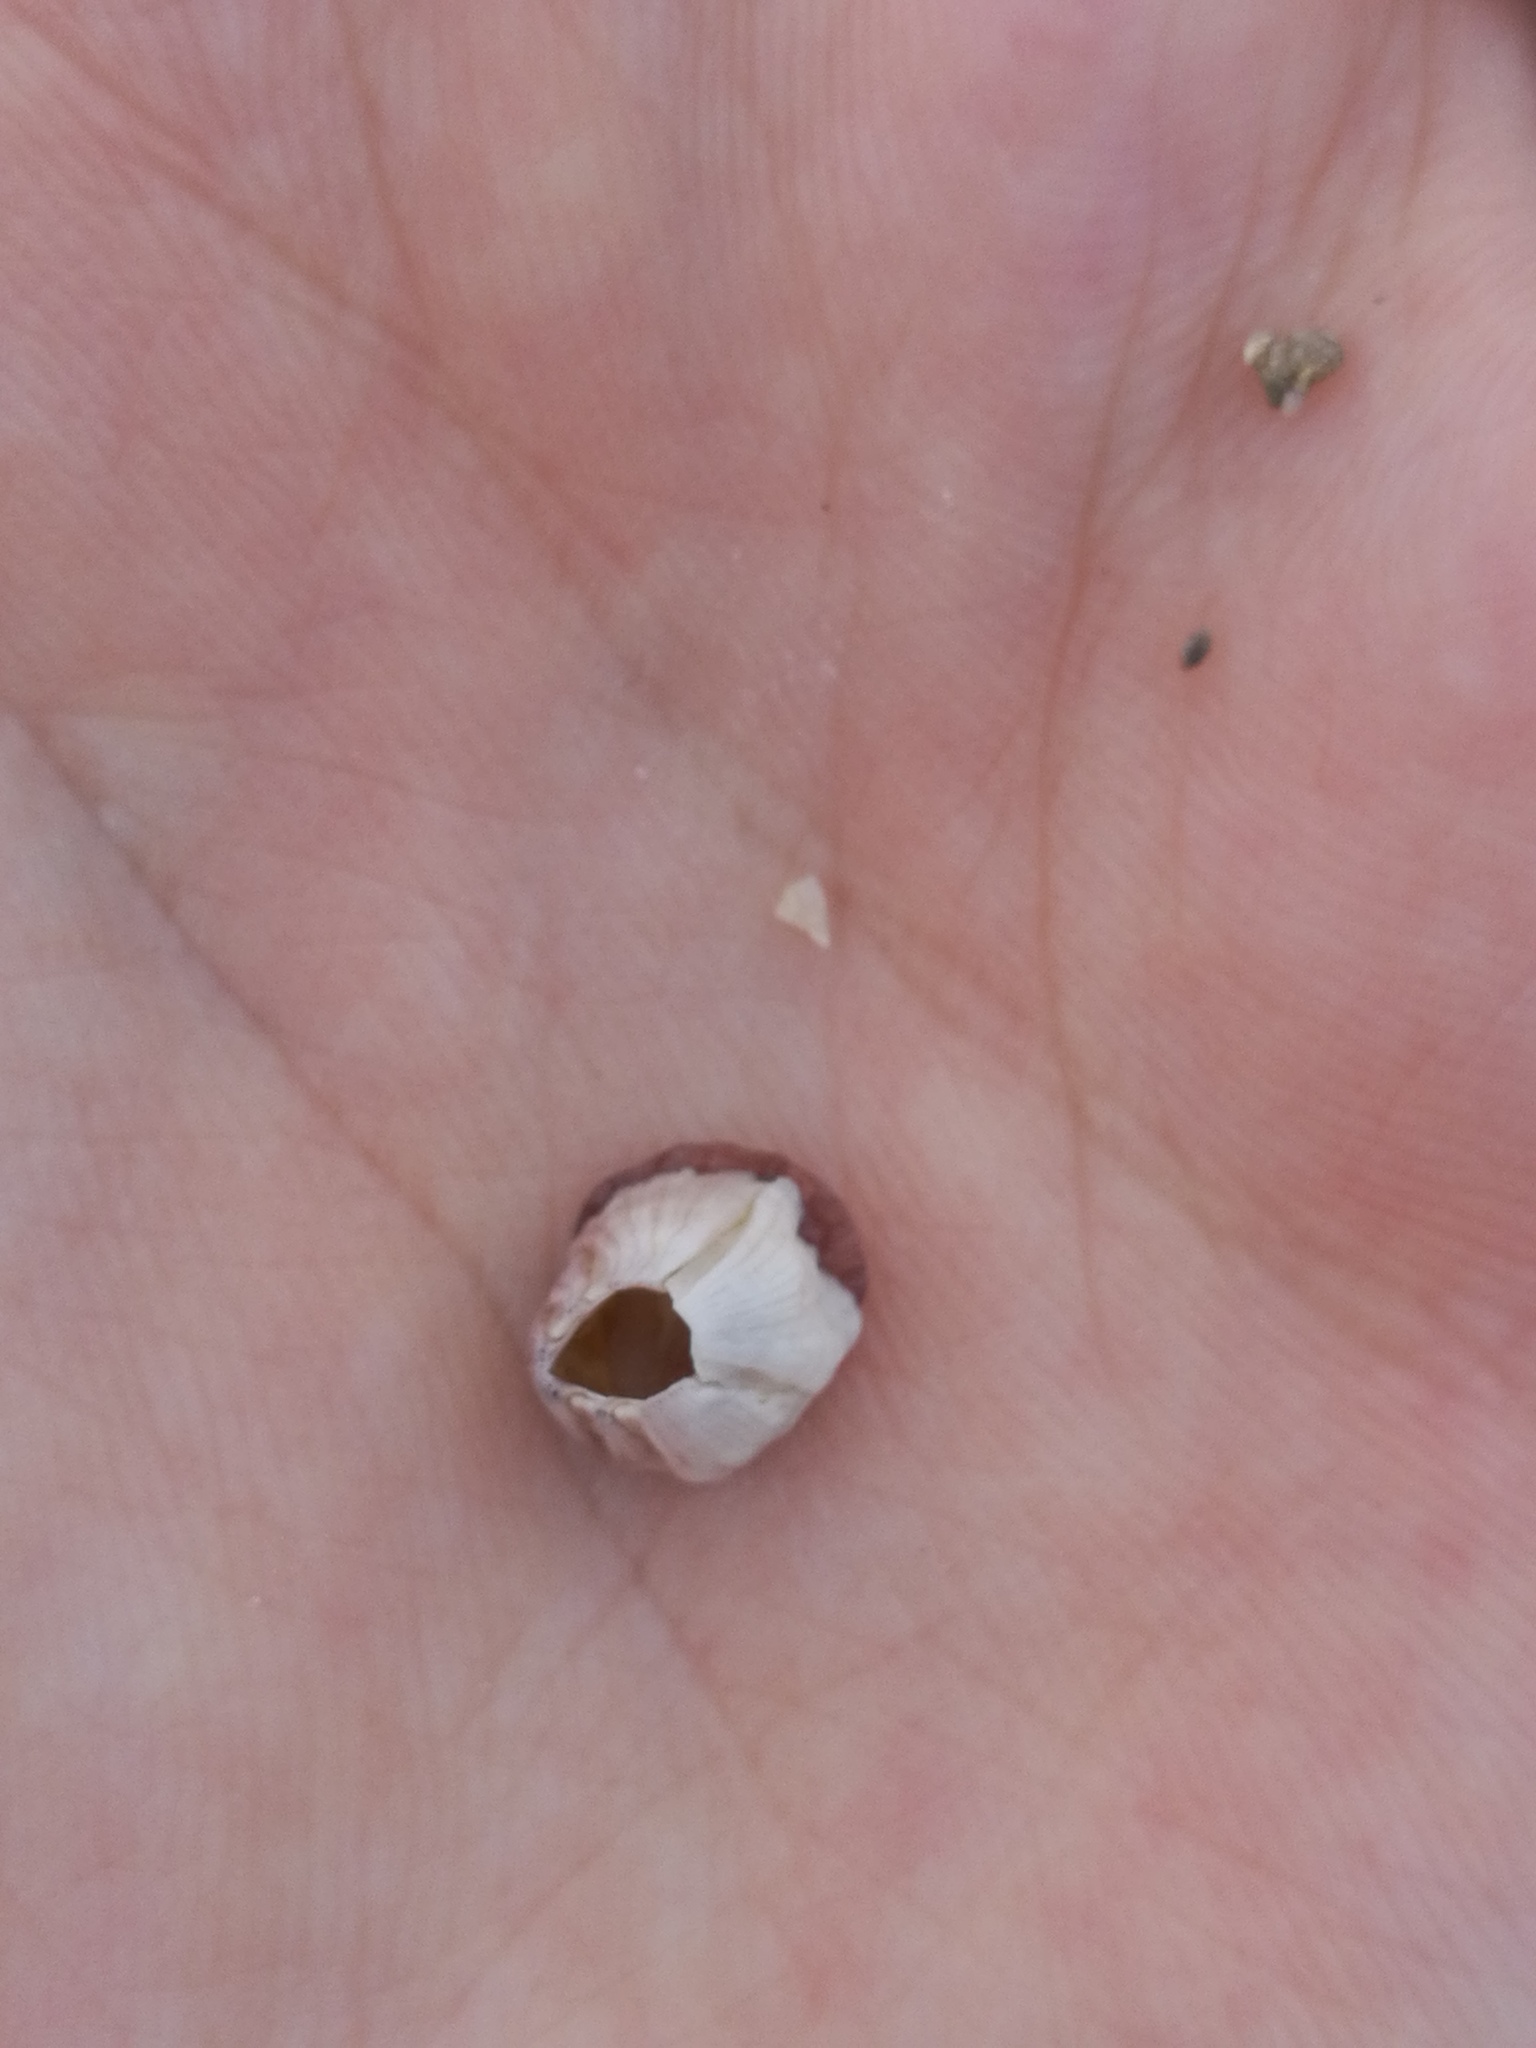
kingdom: Animalia
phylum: Arthropoda
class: Maxillopoda
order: Sessilia
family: Balanidae
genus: Perforatus
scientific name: Perforatus perforatus
